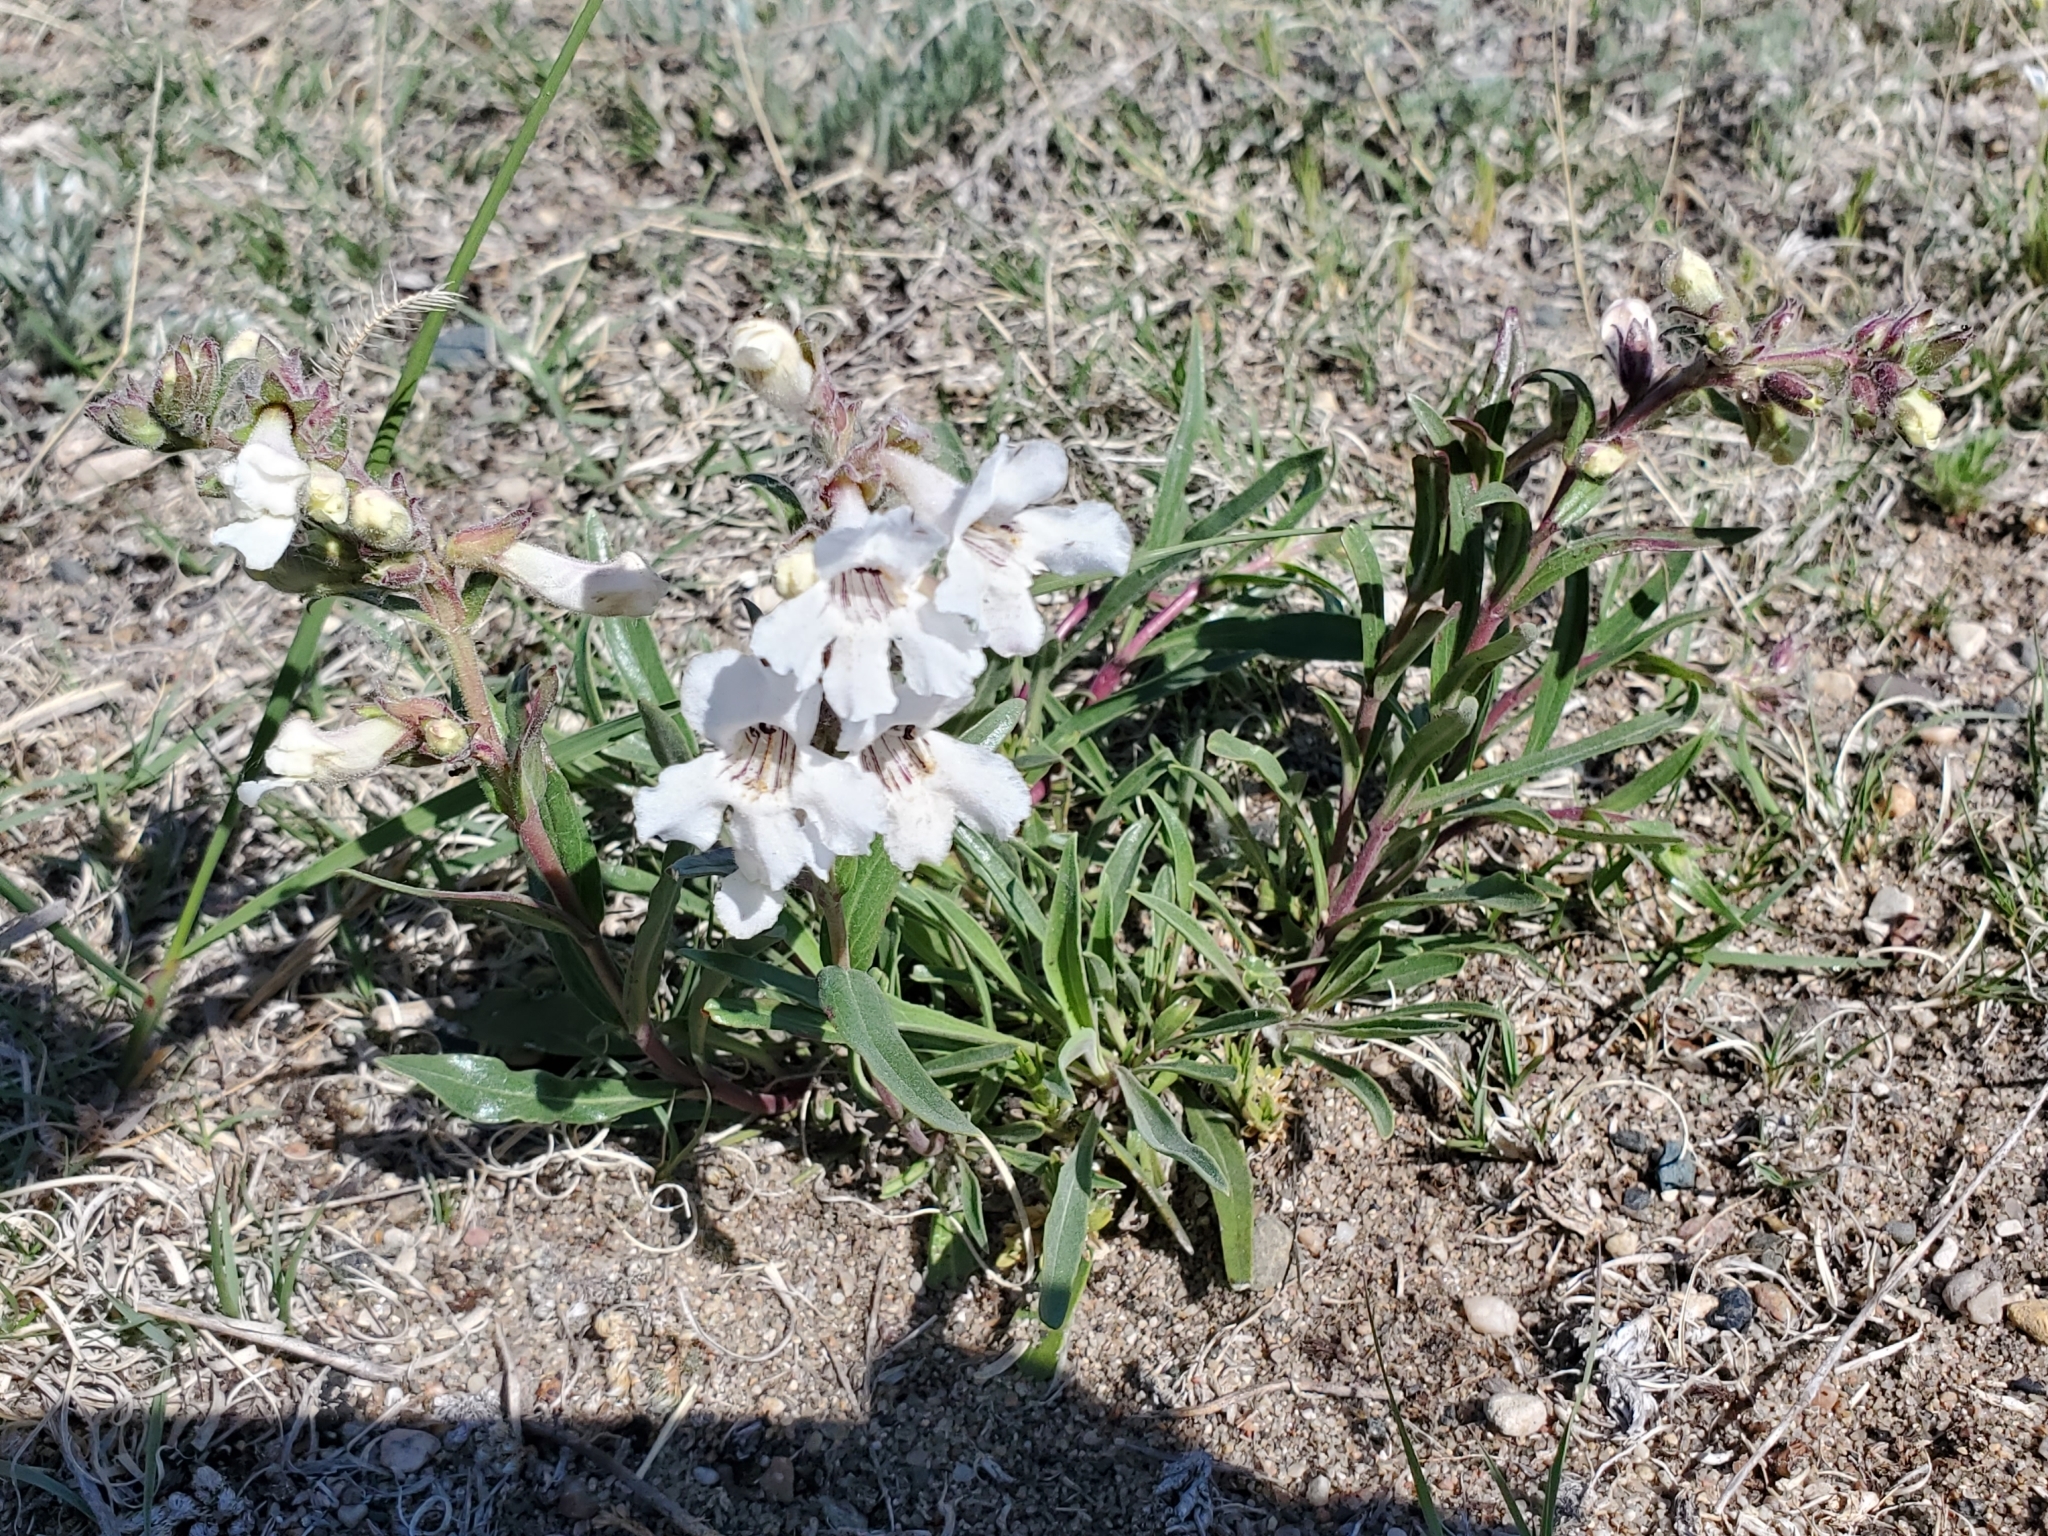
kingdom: Plantae
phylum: Tracheophyta
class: Magnoliopsida
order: Lamiales
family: Plantaginaceae
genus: Penstemon
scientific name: Penstemon albidus
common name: White beardtongue
